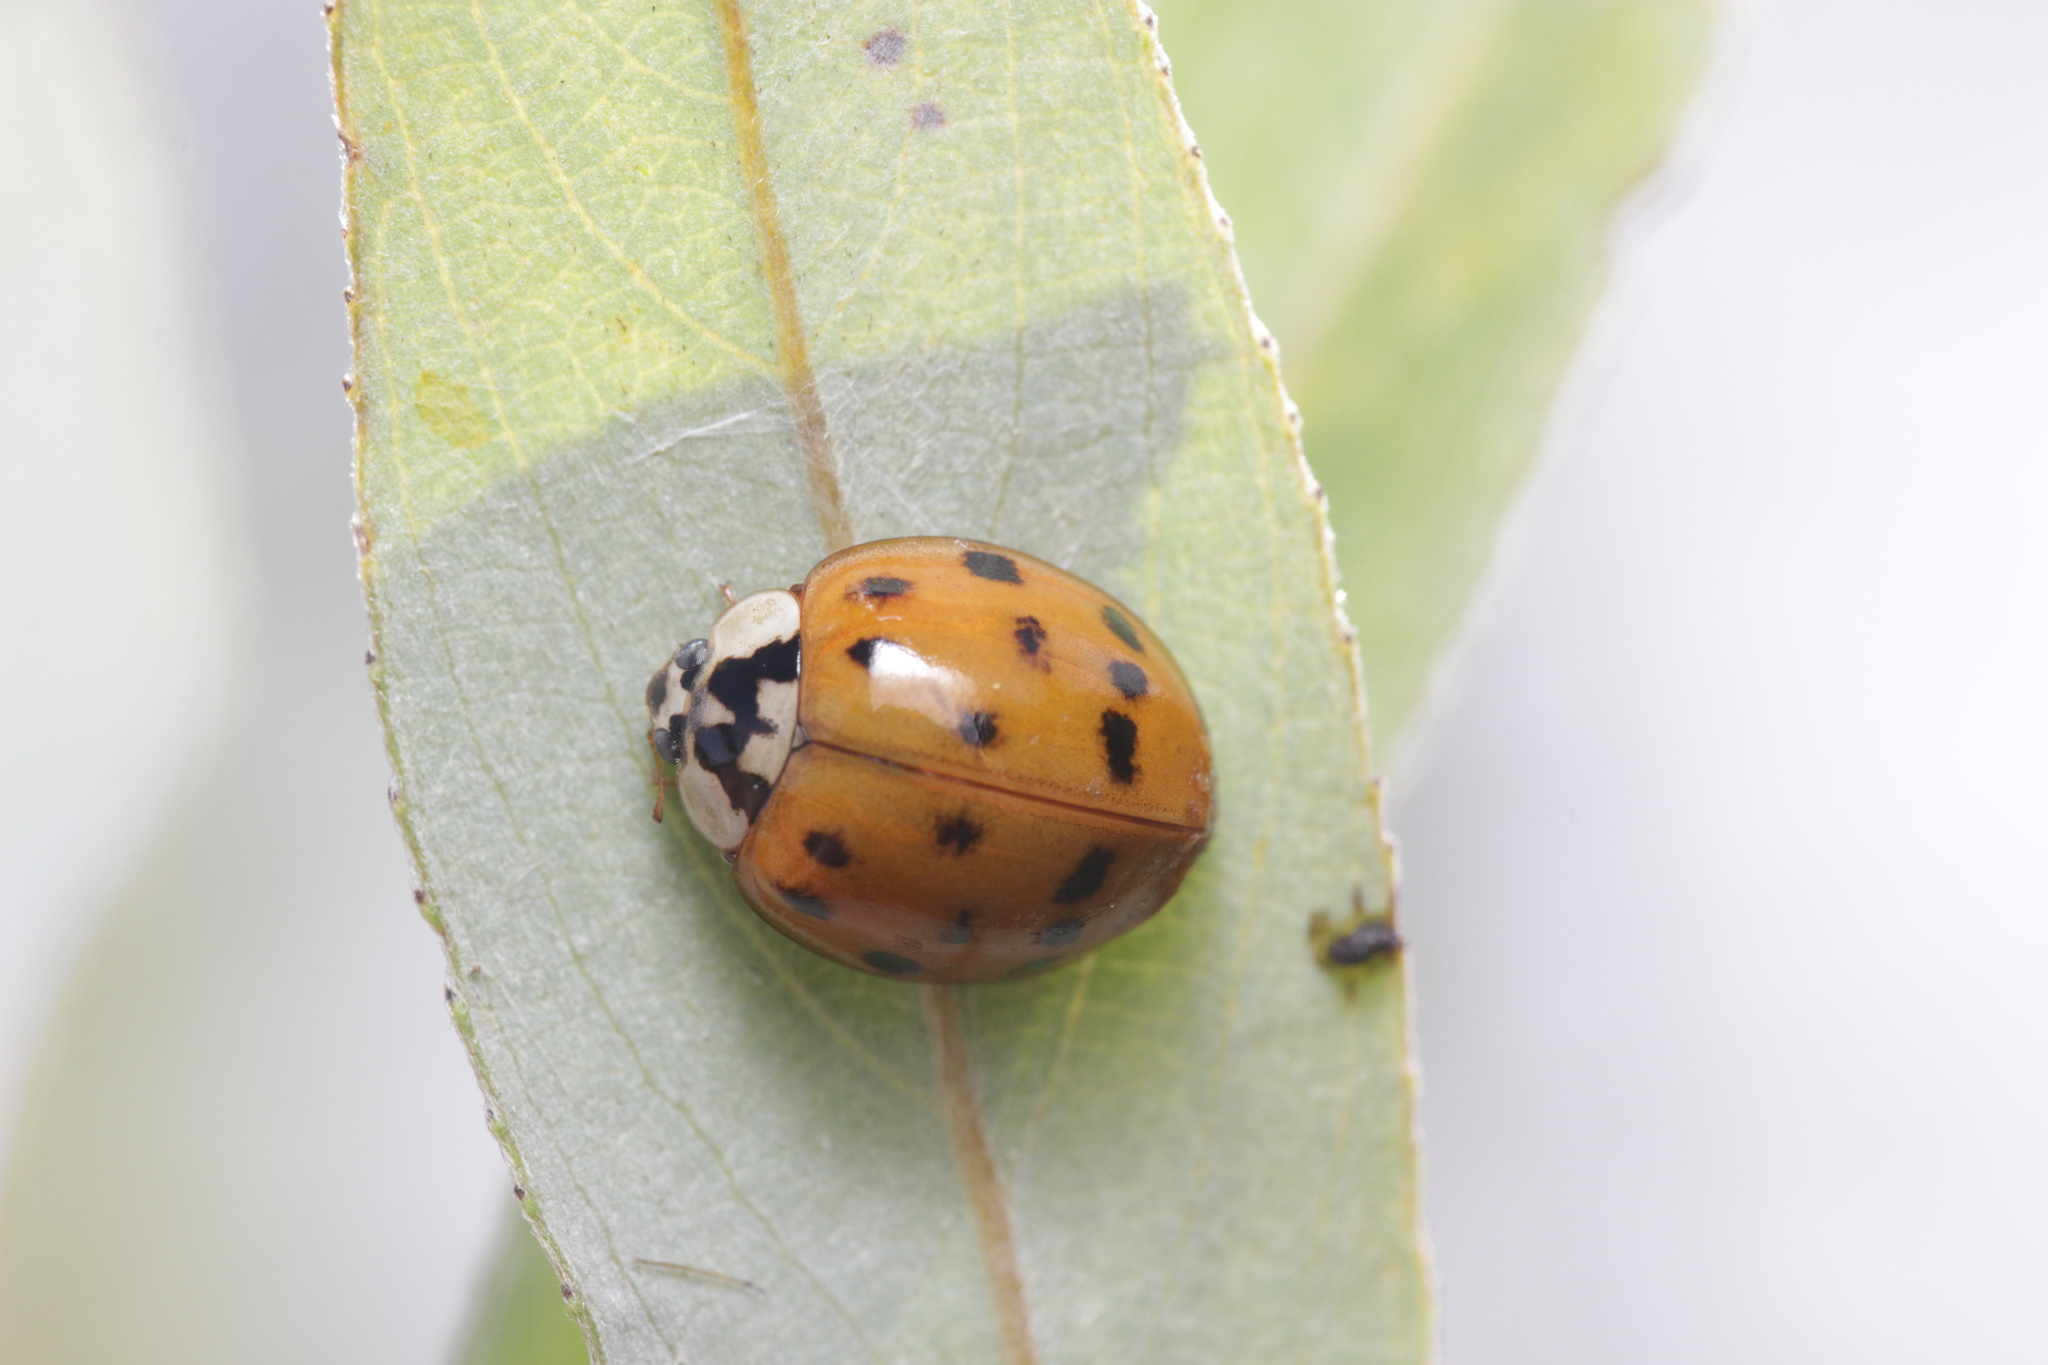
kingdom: Animalia
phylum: Arthropoda
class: Insecta
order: Coleoptera
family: Coccinellidae
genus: Harmonia
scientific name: Harmonia axyridis
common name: Harlequin ladybird
